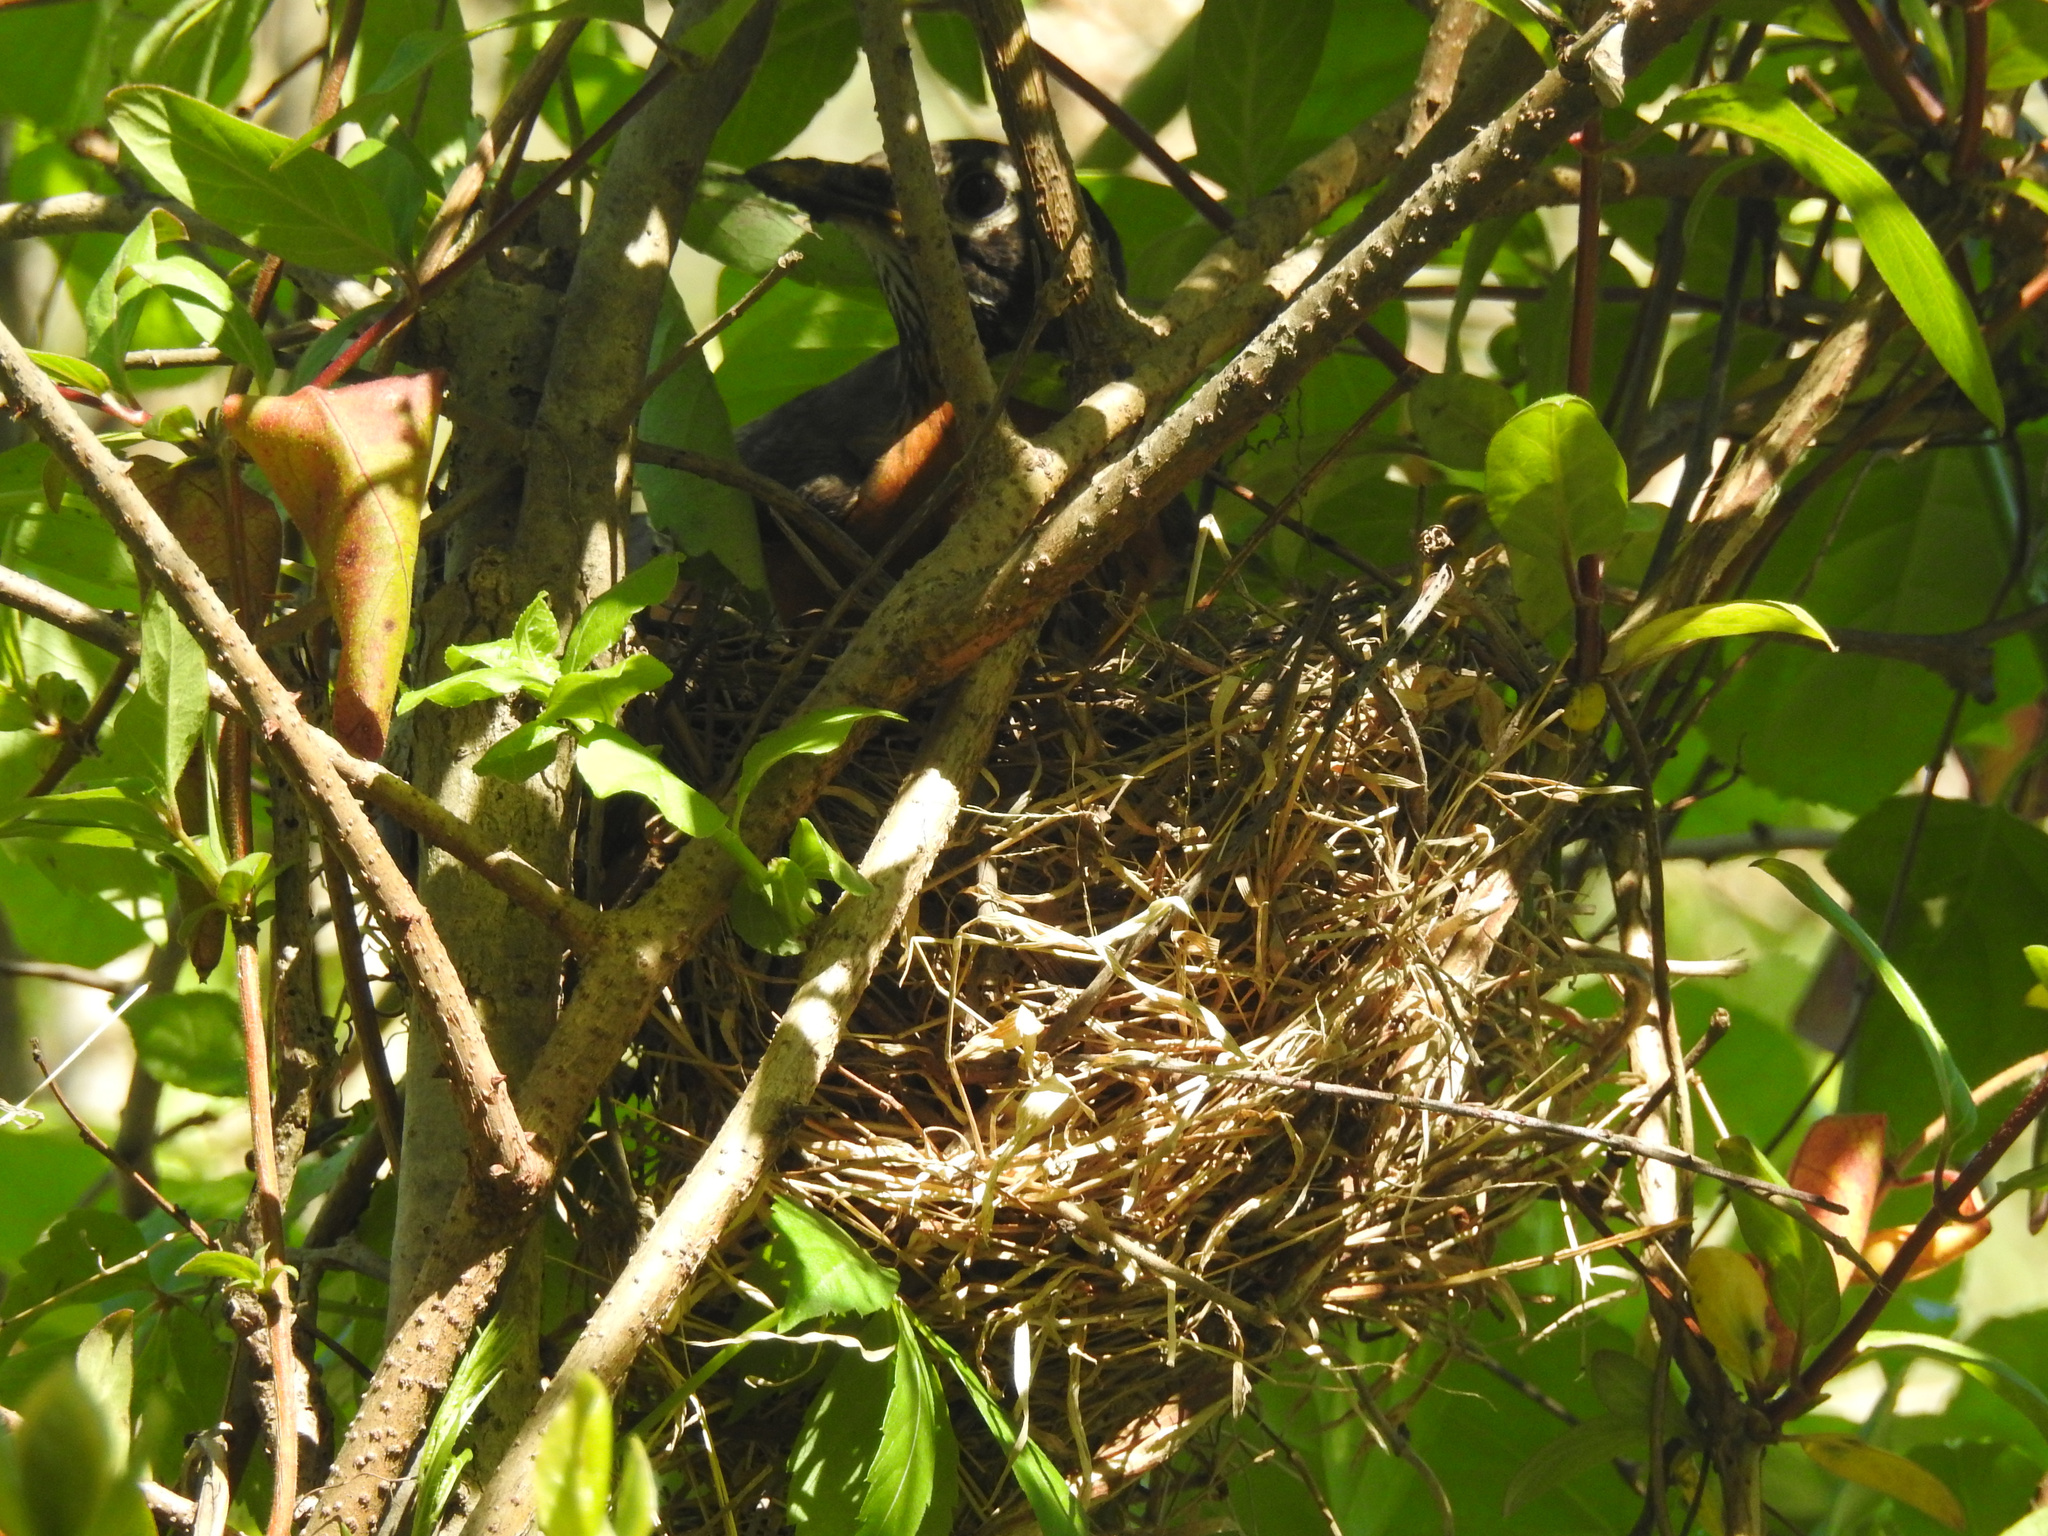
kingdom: Animalia
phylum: Chordata
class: Aves
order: Passeriformes
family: Turdidae
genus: Turdus
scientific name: Turdus migratorius
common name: American robin
